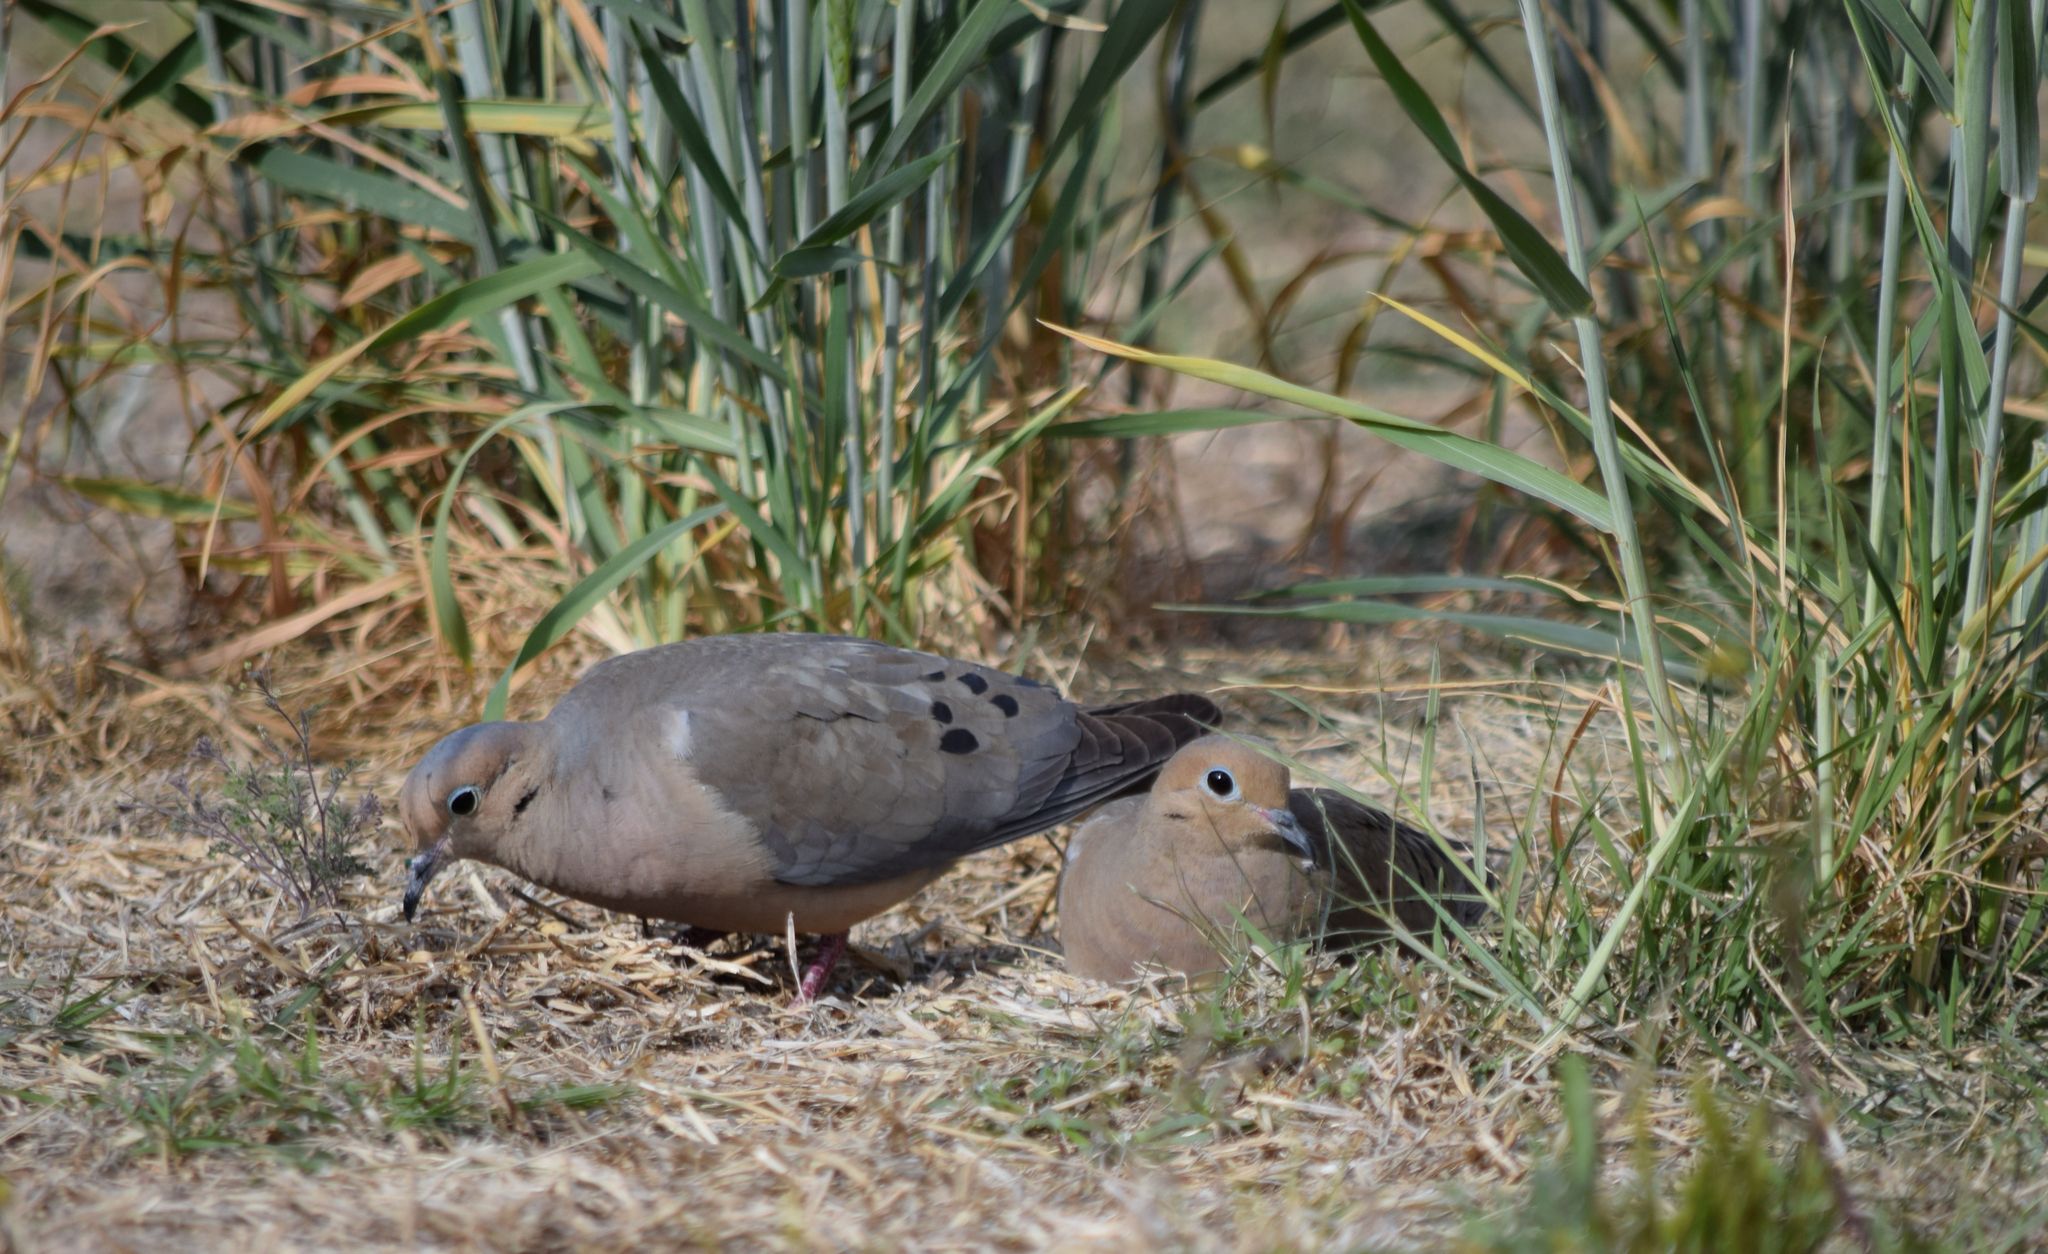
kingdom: Animalia
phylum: Chordata
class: Aves
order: Columbiformes
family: Columbidae
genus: Zenaida
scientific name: Zenaida macroura
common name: Mourning dove
